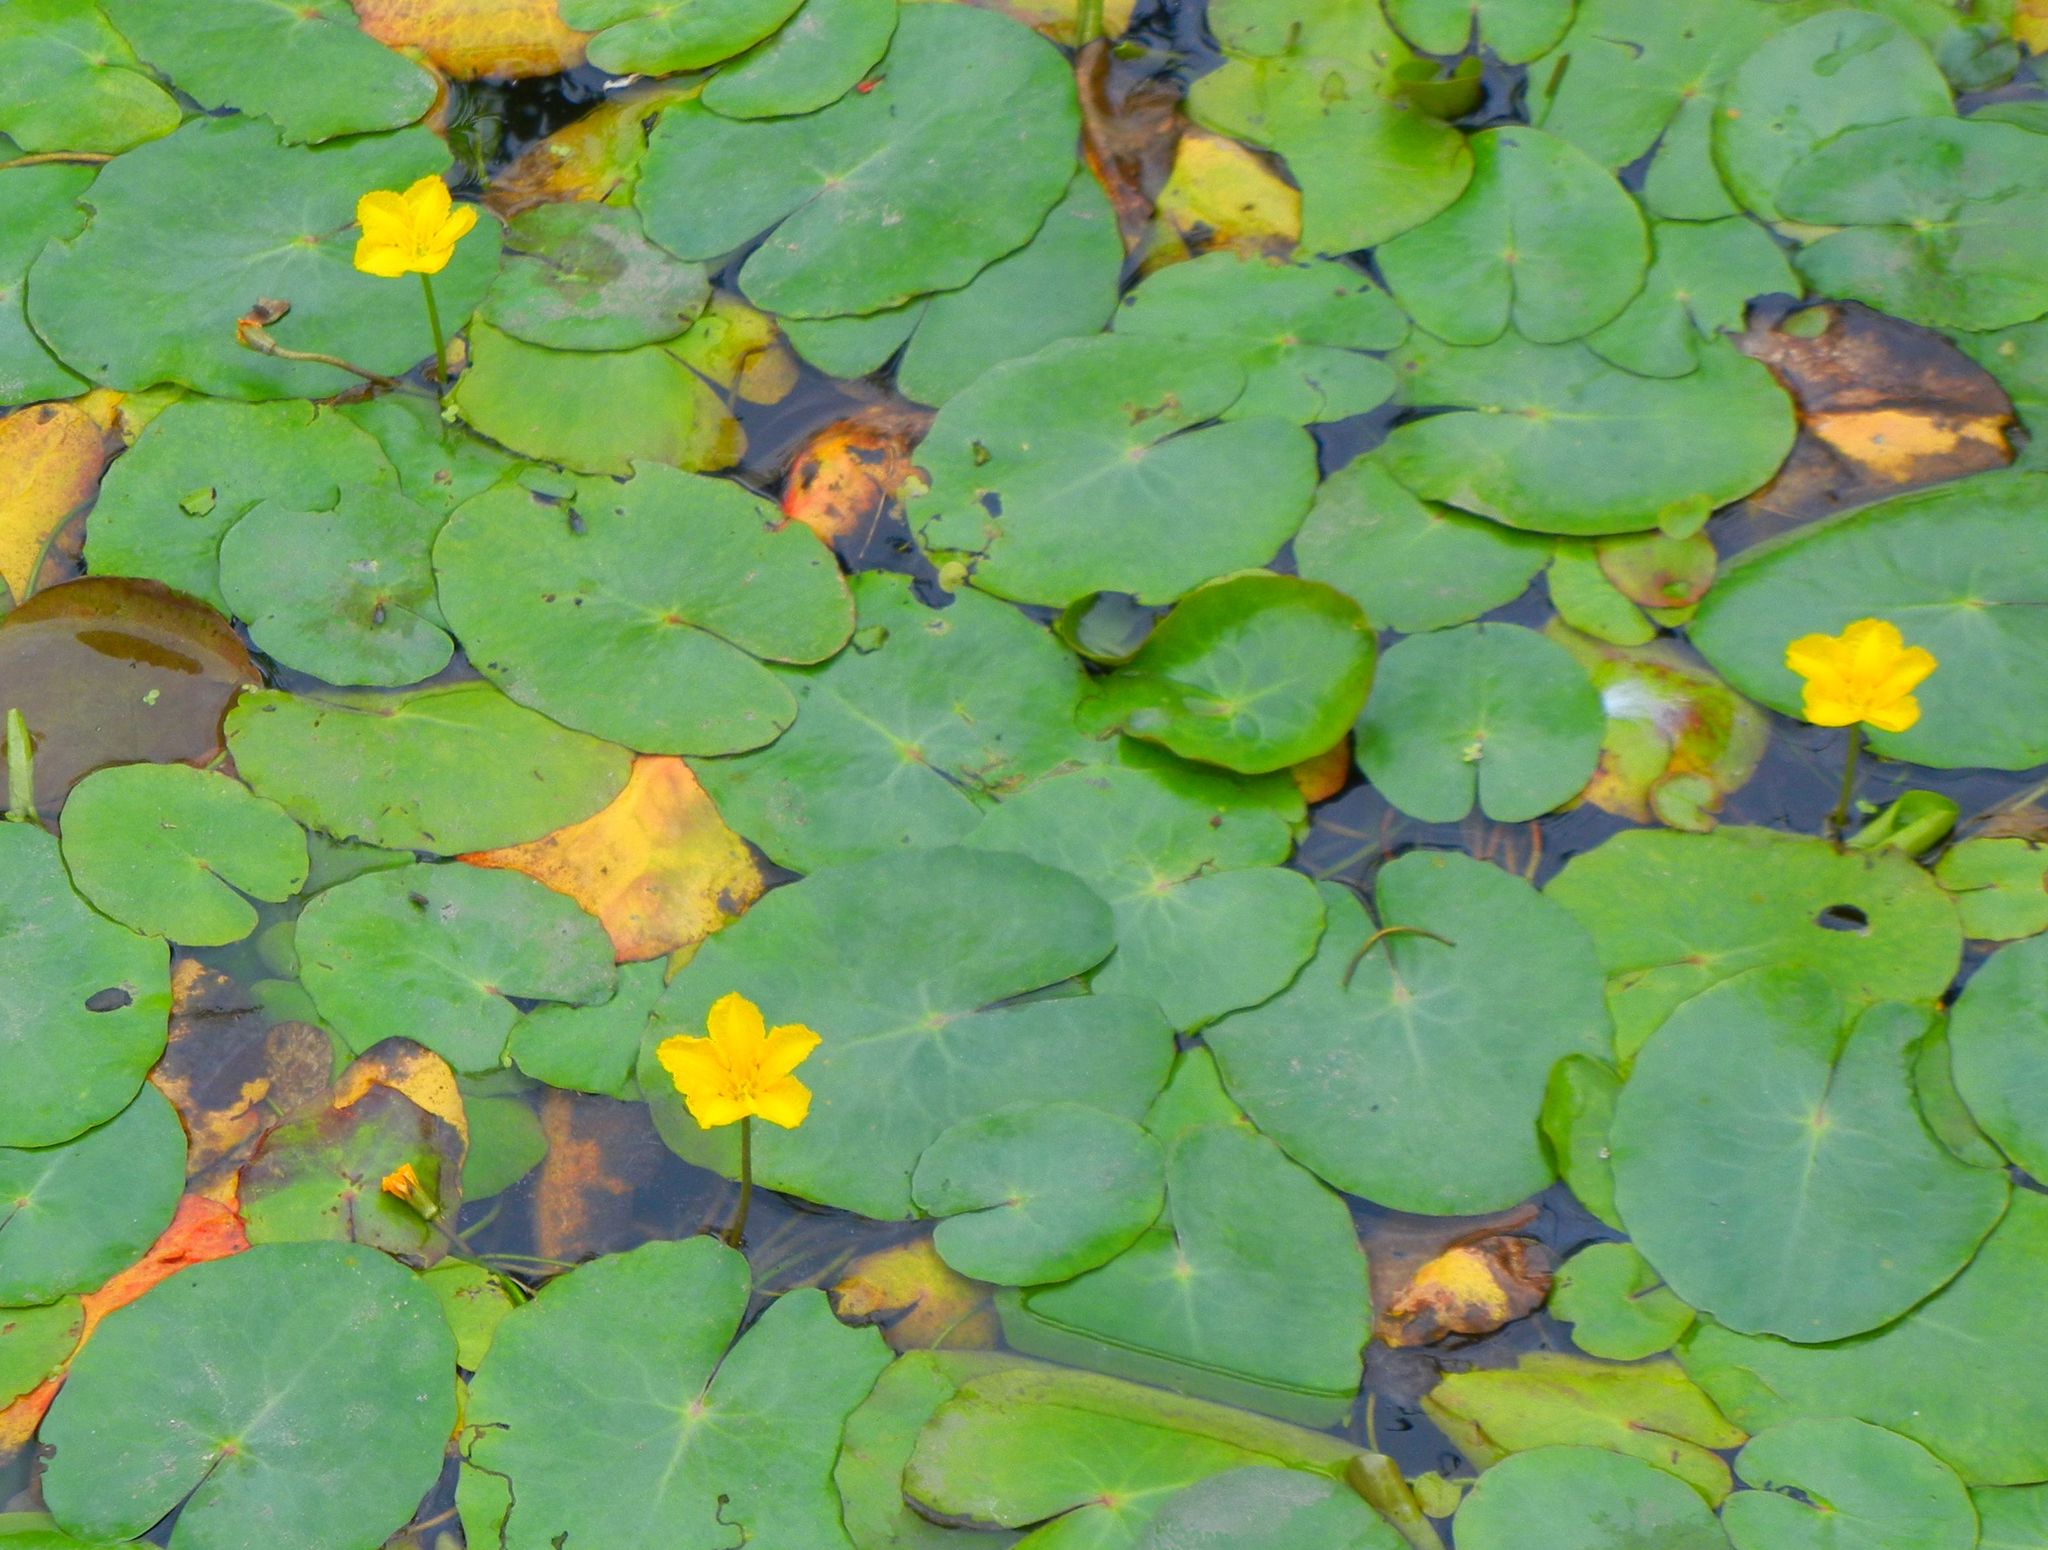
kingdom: Plantae
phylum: Tracheophyta
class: Magnoliopsida
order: Asterales
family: Menyanthaceae
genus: Nymphoides
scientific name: Nymphoides peltata
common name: Fringed water-lily
